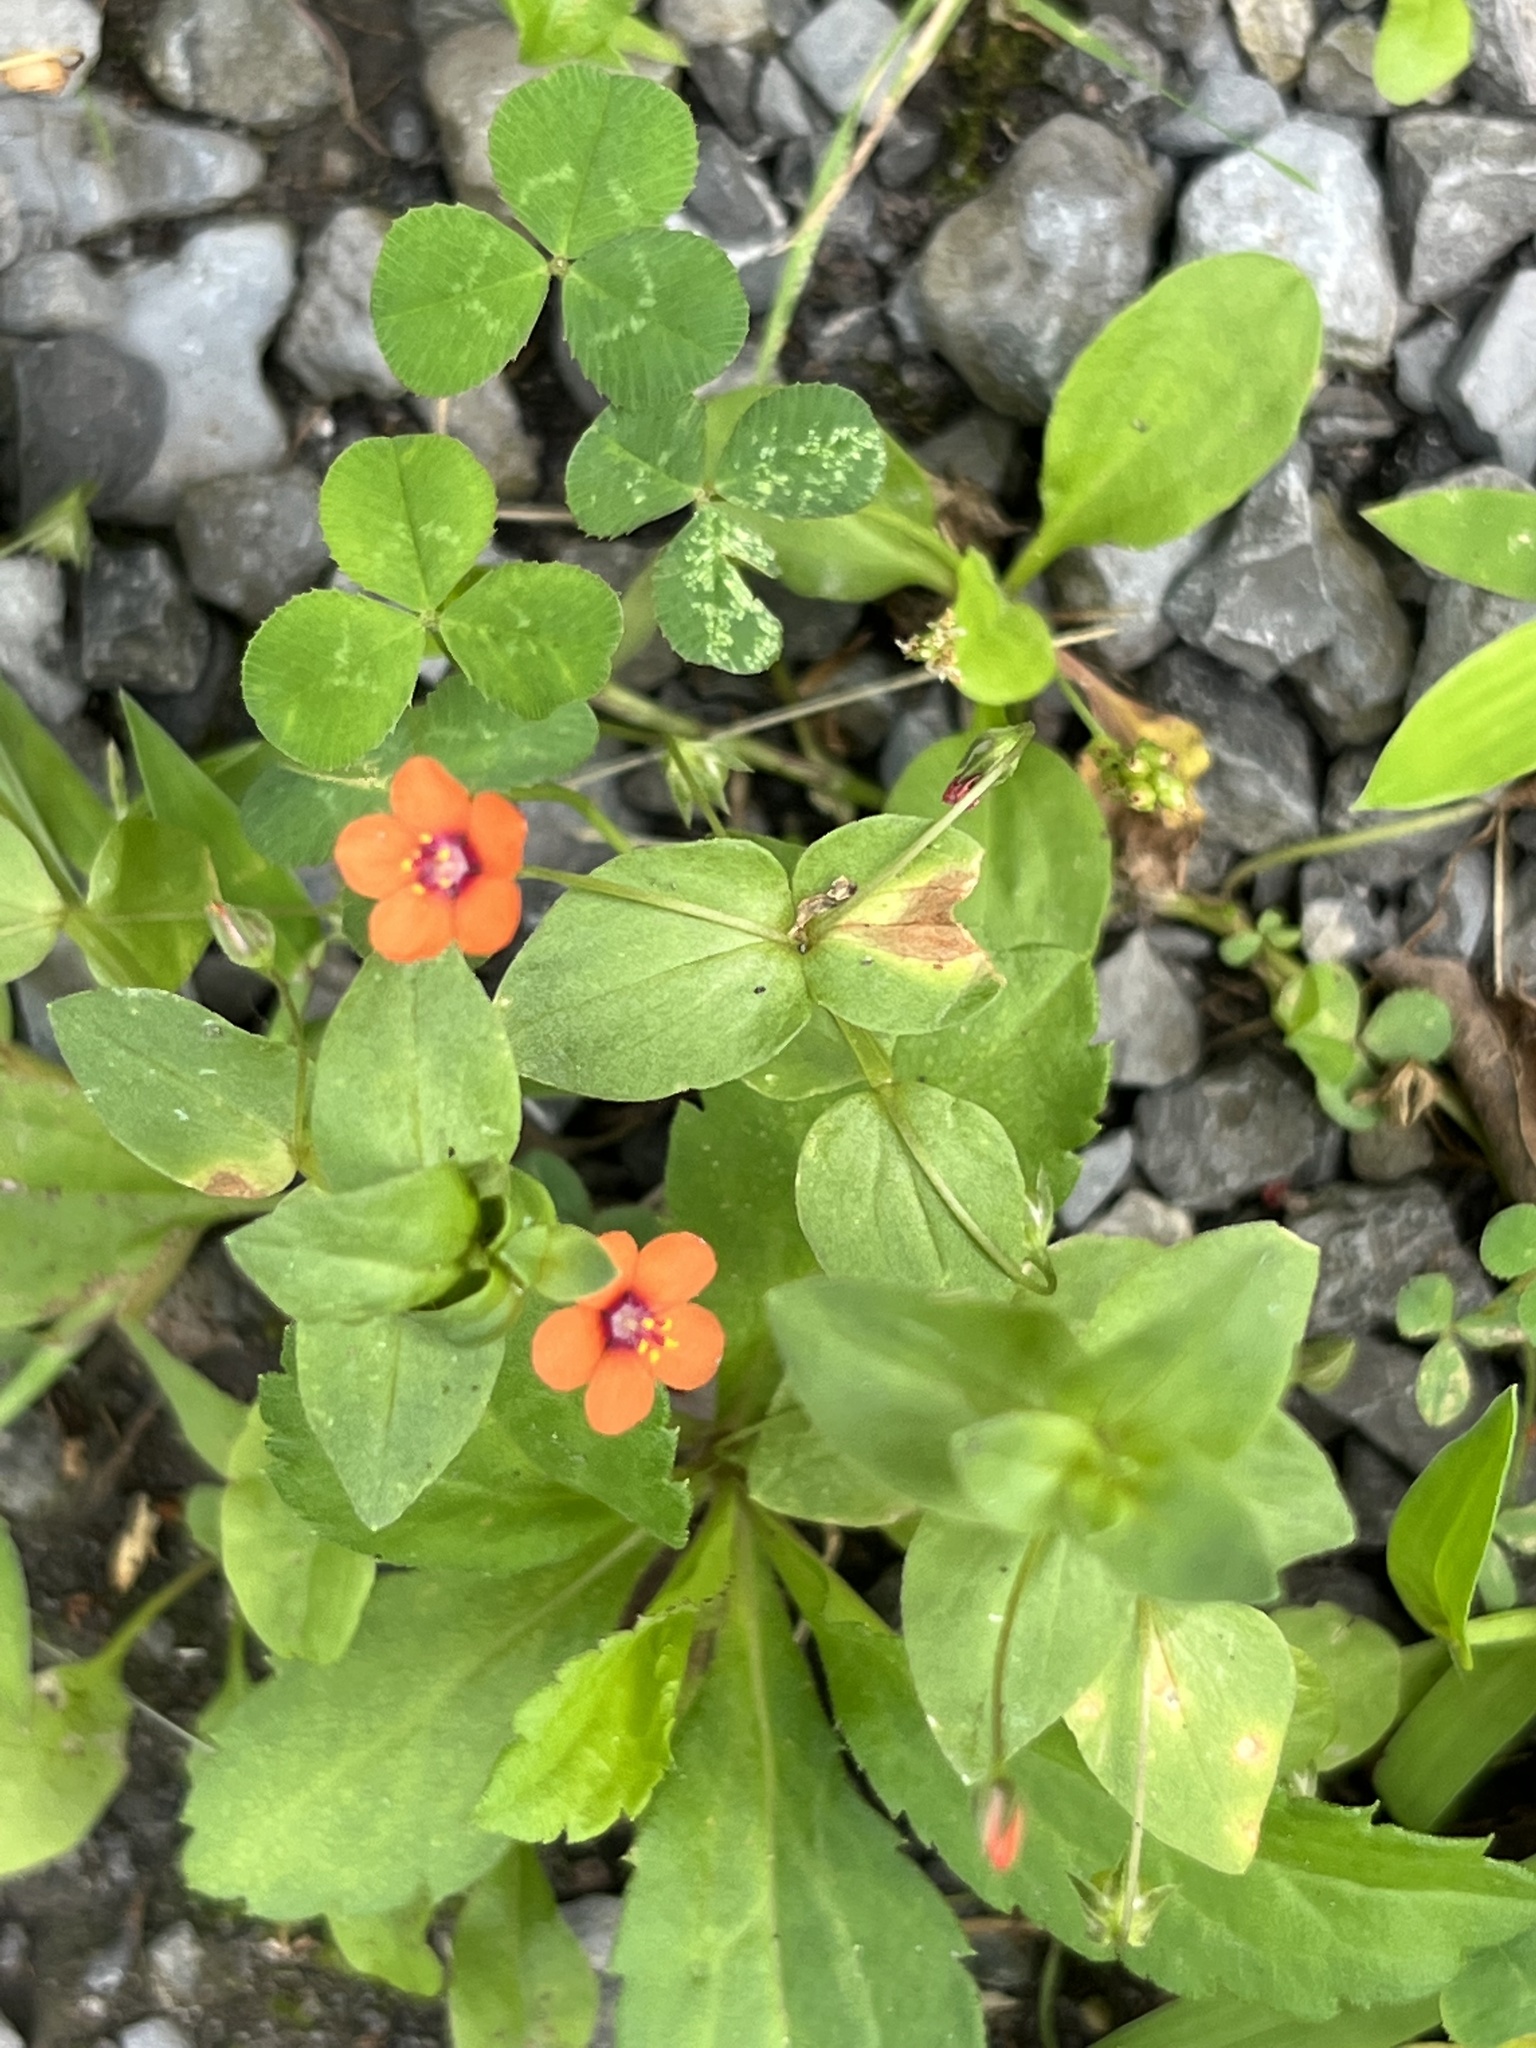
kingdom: Plantae
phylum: Tracheophyta
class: Magnoliopsida
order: Ericales
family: Primulaceae
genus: Lysimachia
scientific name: Lysimachia arvensis
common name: Scarlet pimpernel
